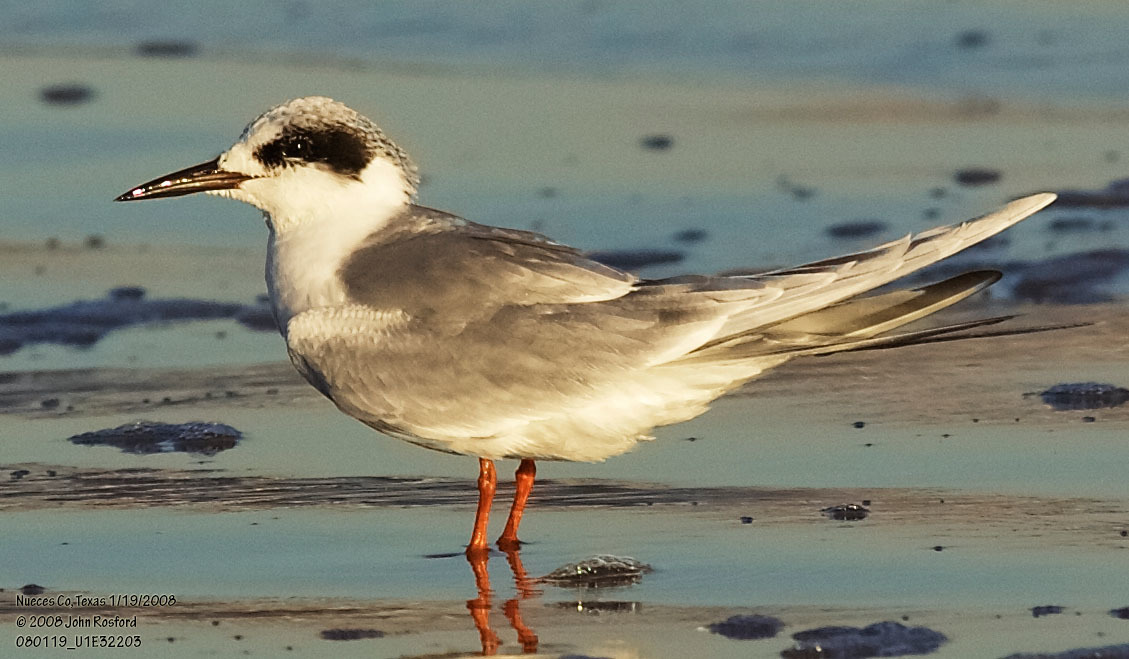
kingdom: Animalia
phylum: Chordata
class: Aves
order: Charadriiformes
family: Laridae
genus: Sterna
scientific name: Sterna forsteri
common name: Forster's tern
